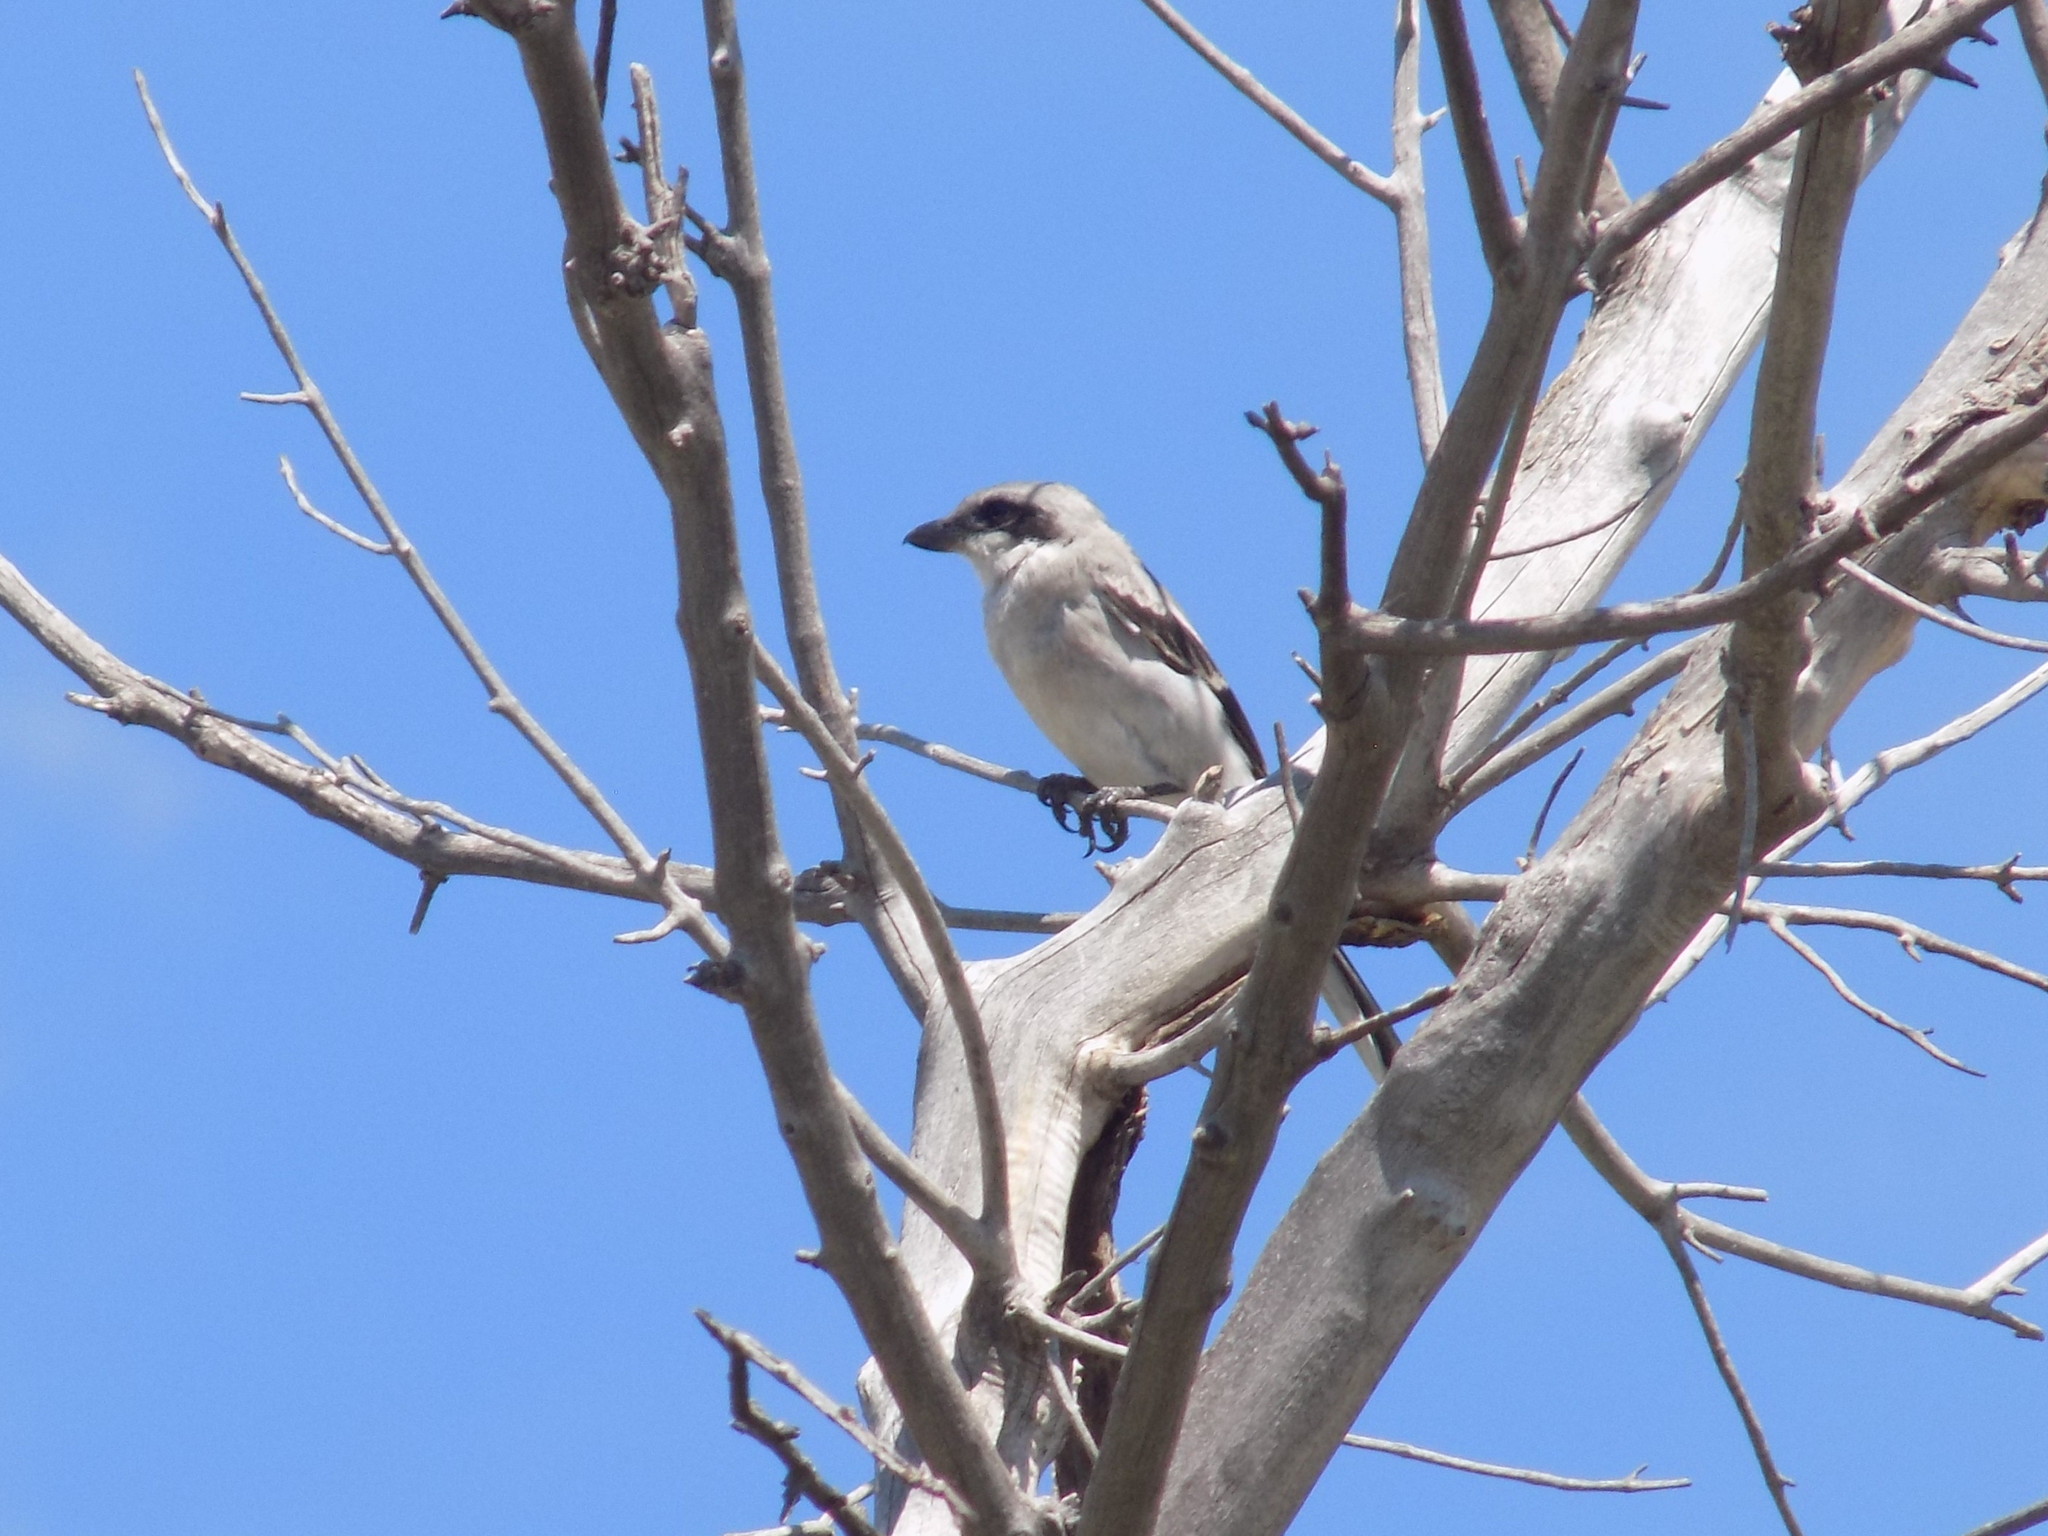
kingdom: Animalia
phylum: Chordata
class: Aves
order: Passeriformes
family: Laniidae
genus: Lanius
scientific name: Lanius ludovicianus
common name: Loggerhead shrike
